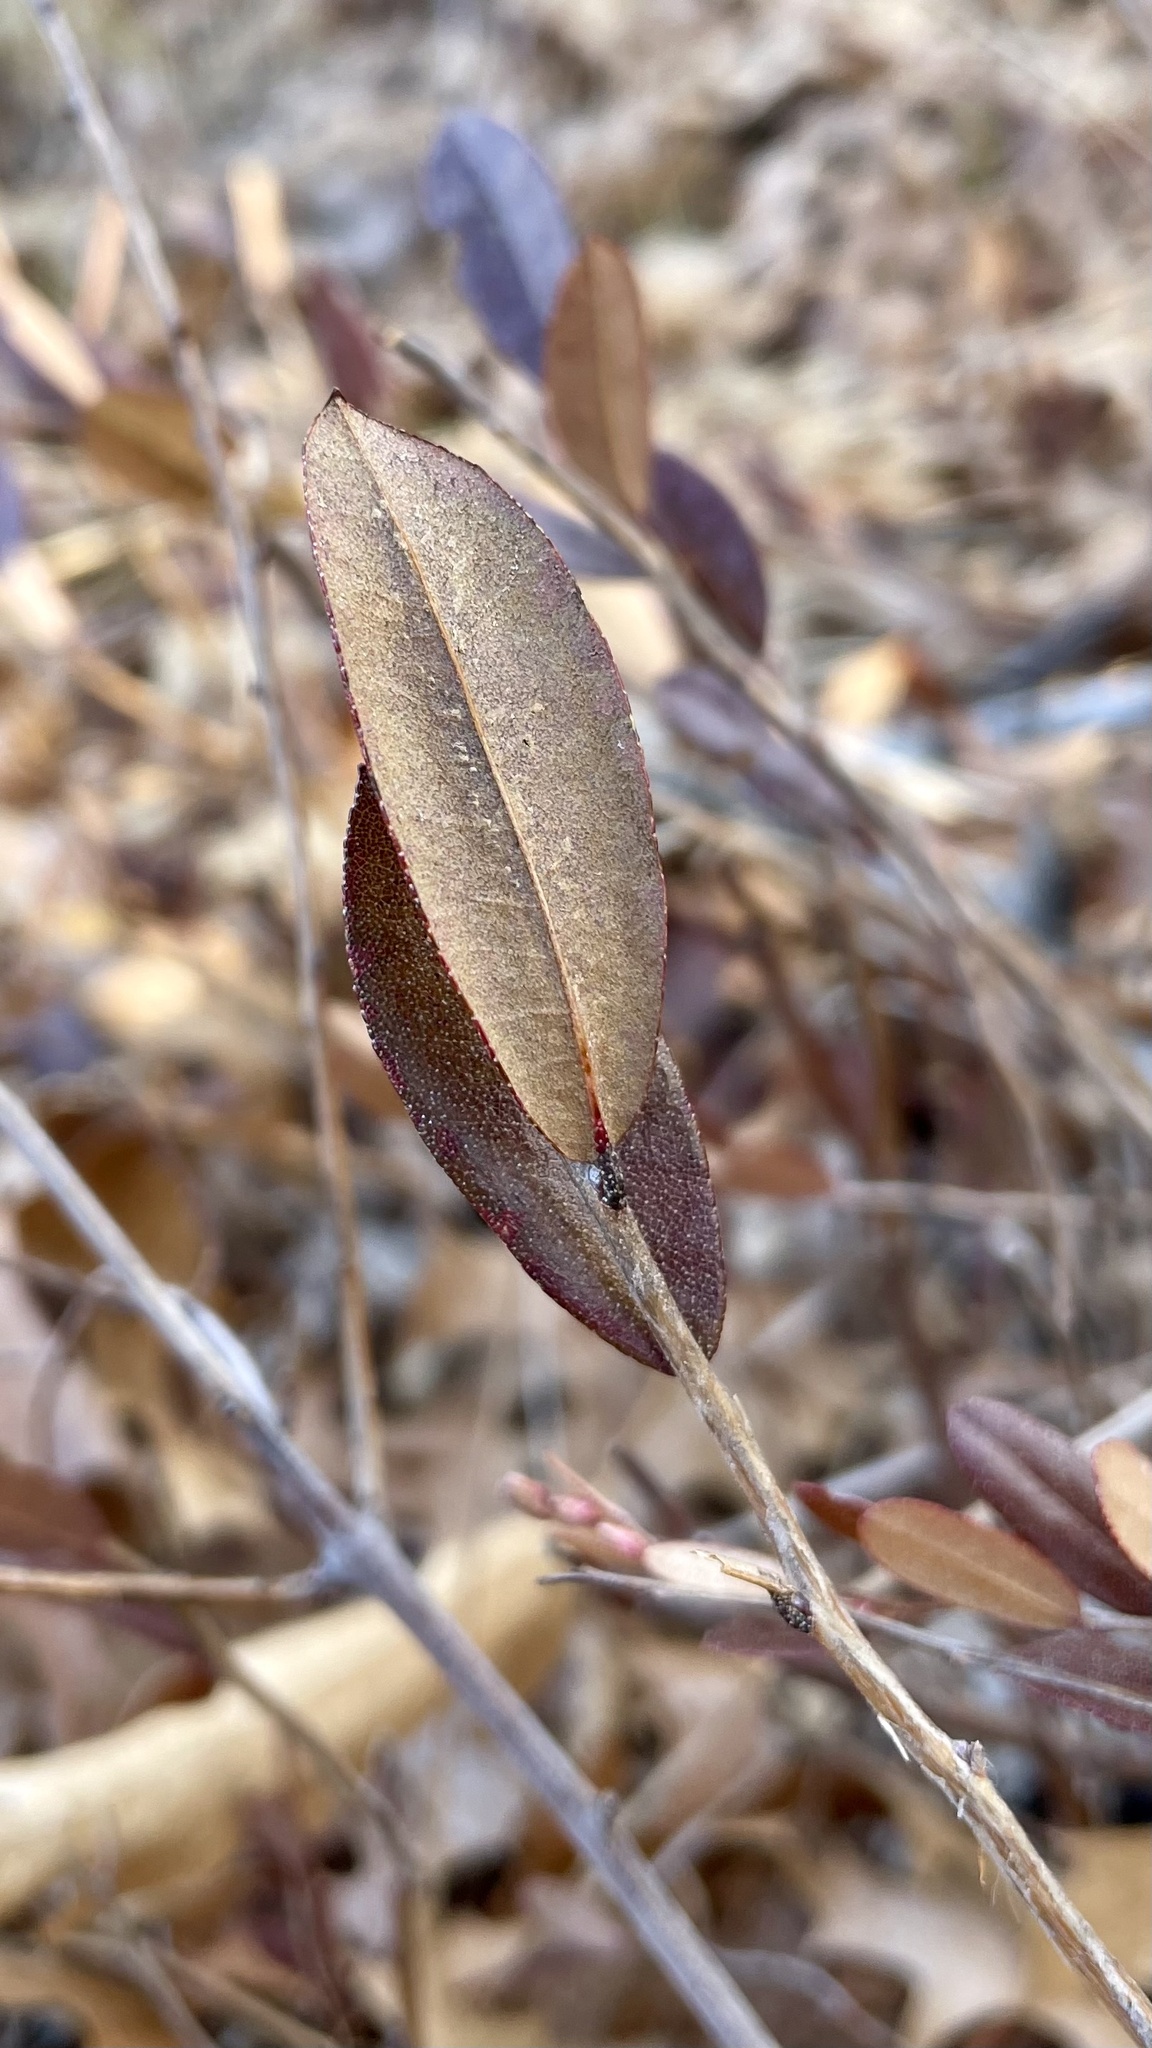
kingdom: Plantae
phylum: Tracheophyta
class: Magnoliopsida
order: Ericales
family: Ericaceae
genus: Chamaedaphne
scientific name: Chamaedaphne calyculata
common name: Leatherleaf
